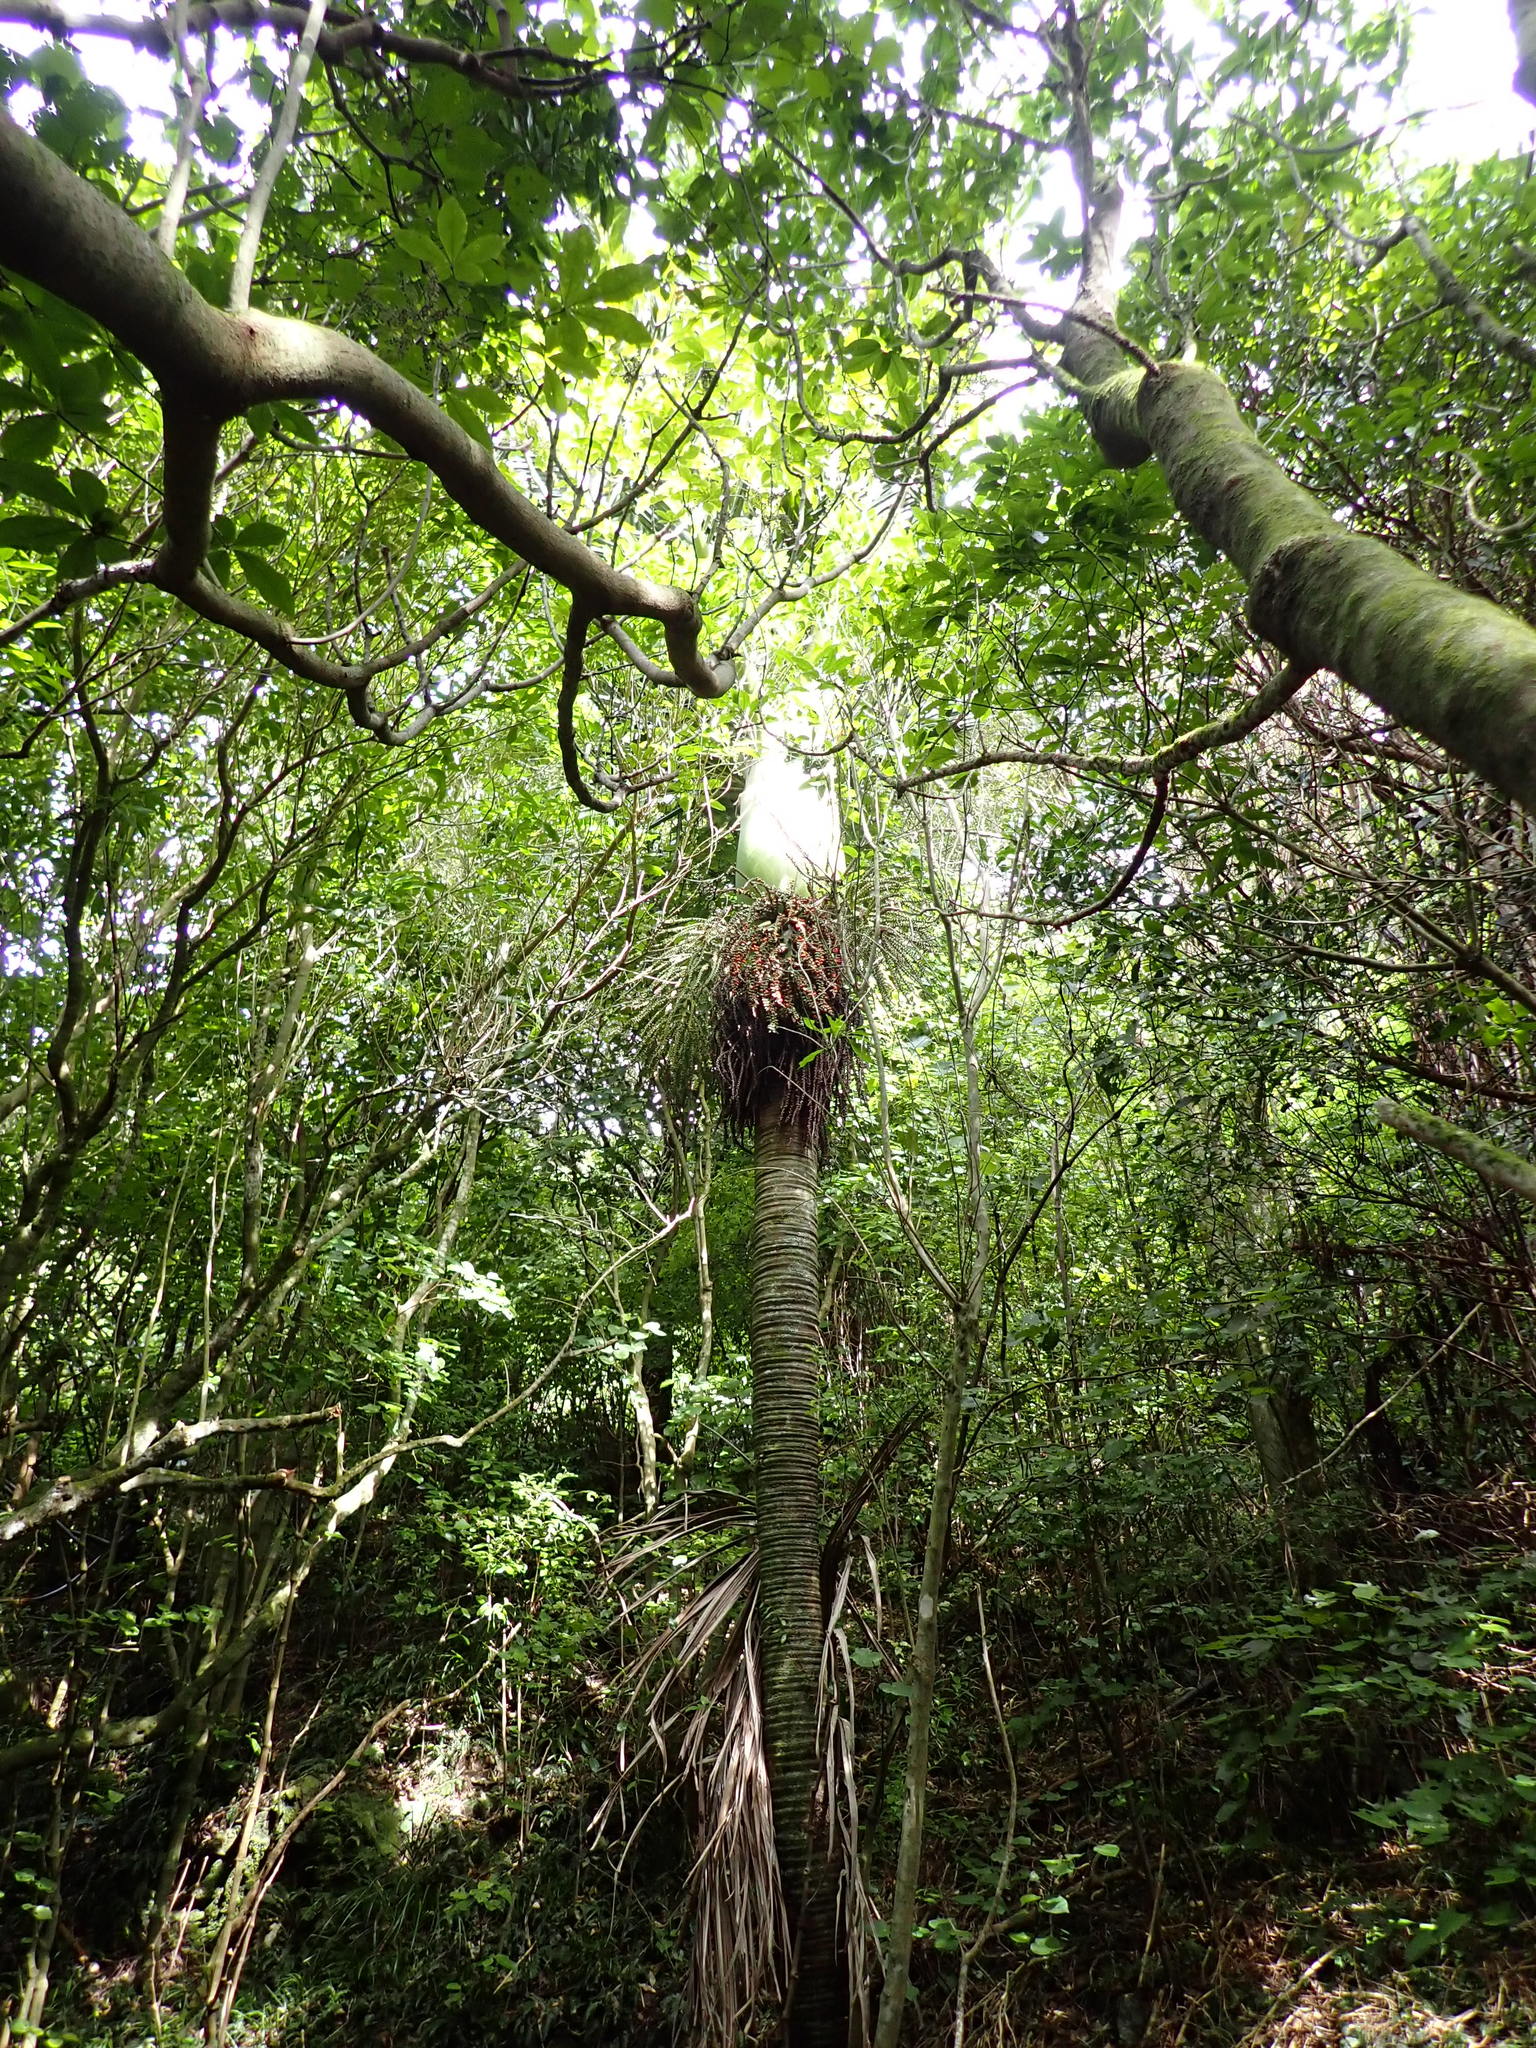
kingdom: Plantae
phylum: Tracheophyta
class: Liliopsida
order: Arecales
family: Arecaceae
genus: Rhopalostylis
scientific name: Rhopalostylis sapida
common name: Feather-duster palm
